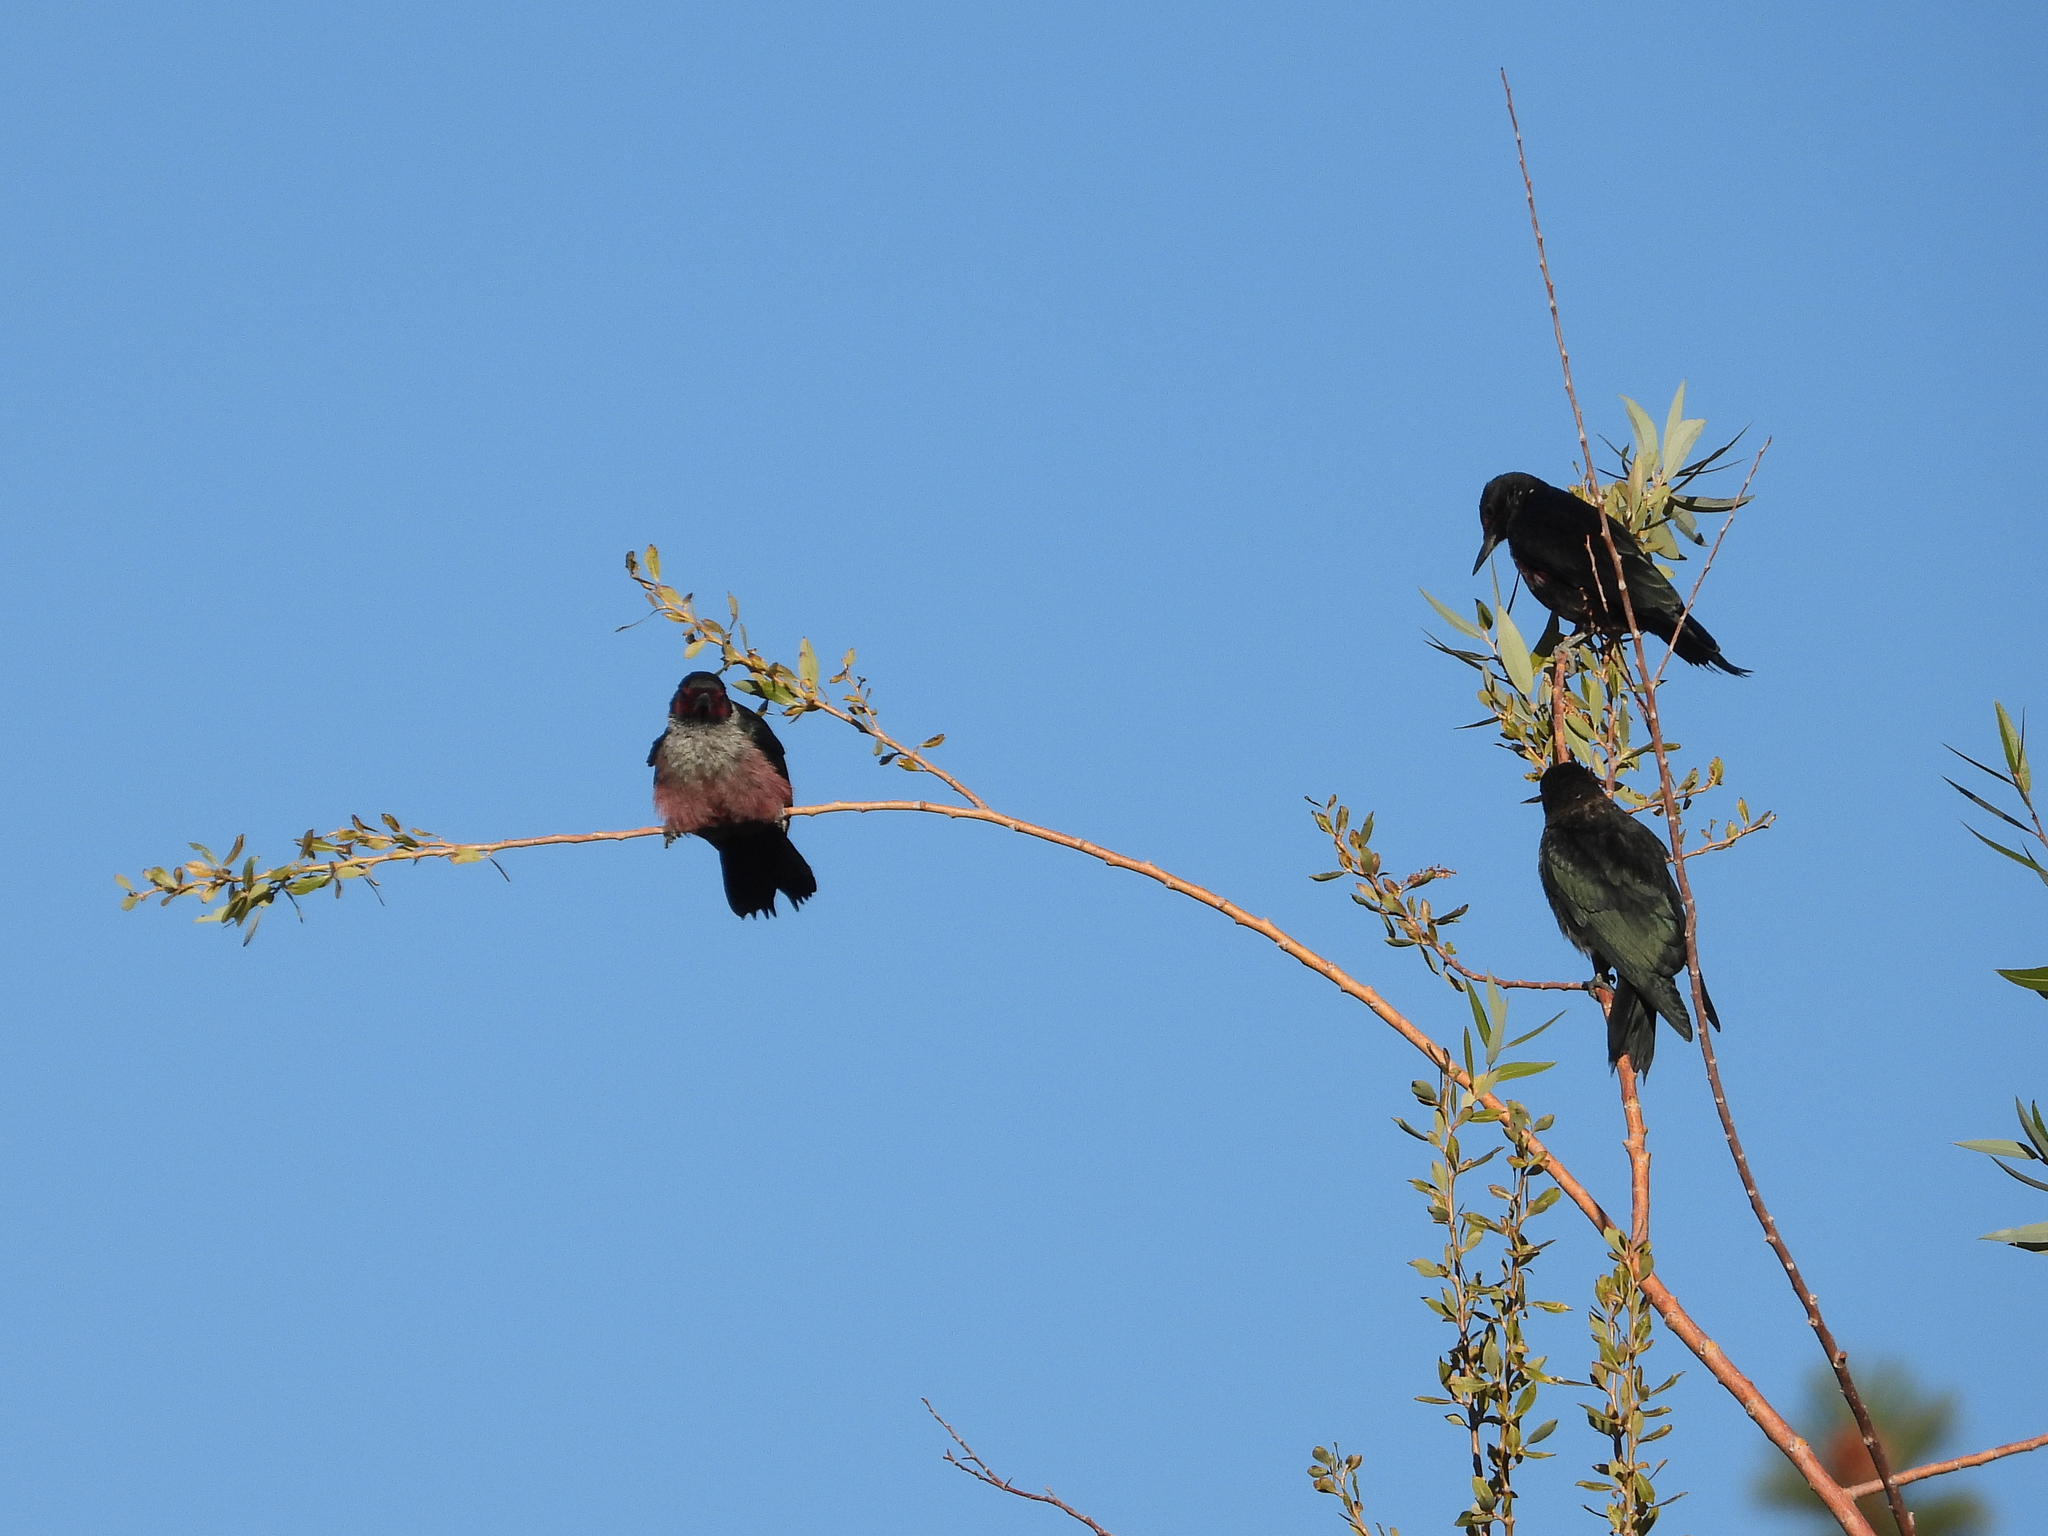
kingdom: Animalia
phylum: Chordata
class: Aves
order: Piciformes
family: Picidae
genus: Melanerpes
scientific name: Melanerpes lewis
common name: Lewis's woodpecker
